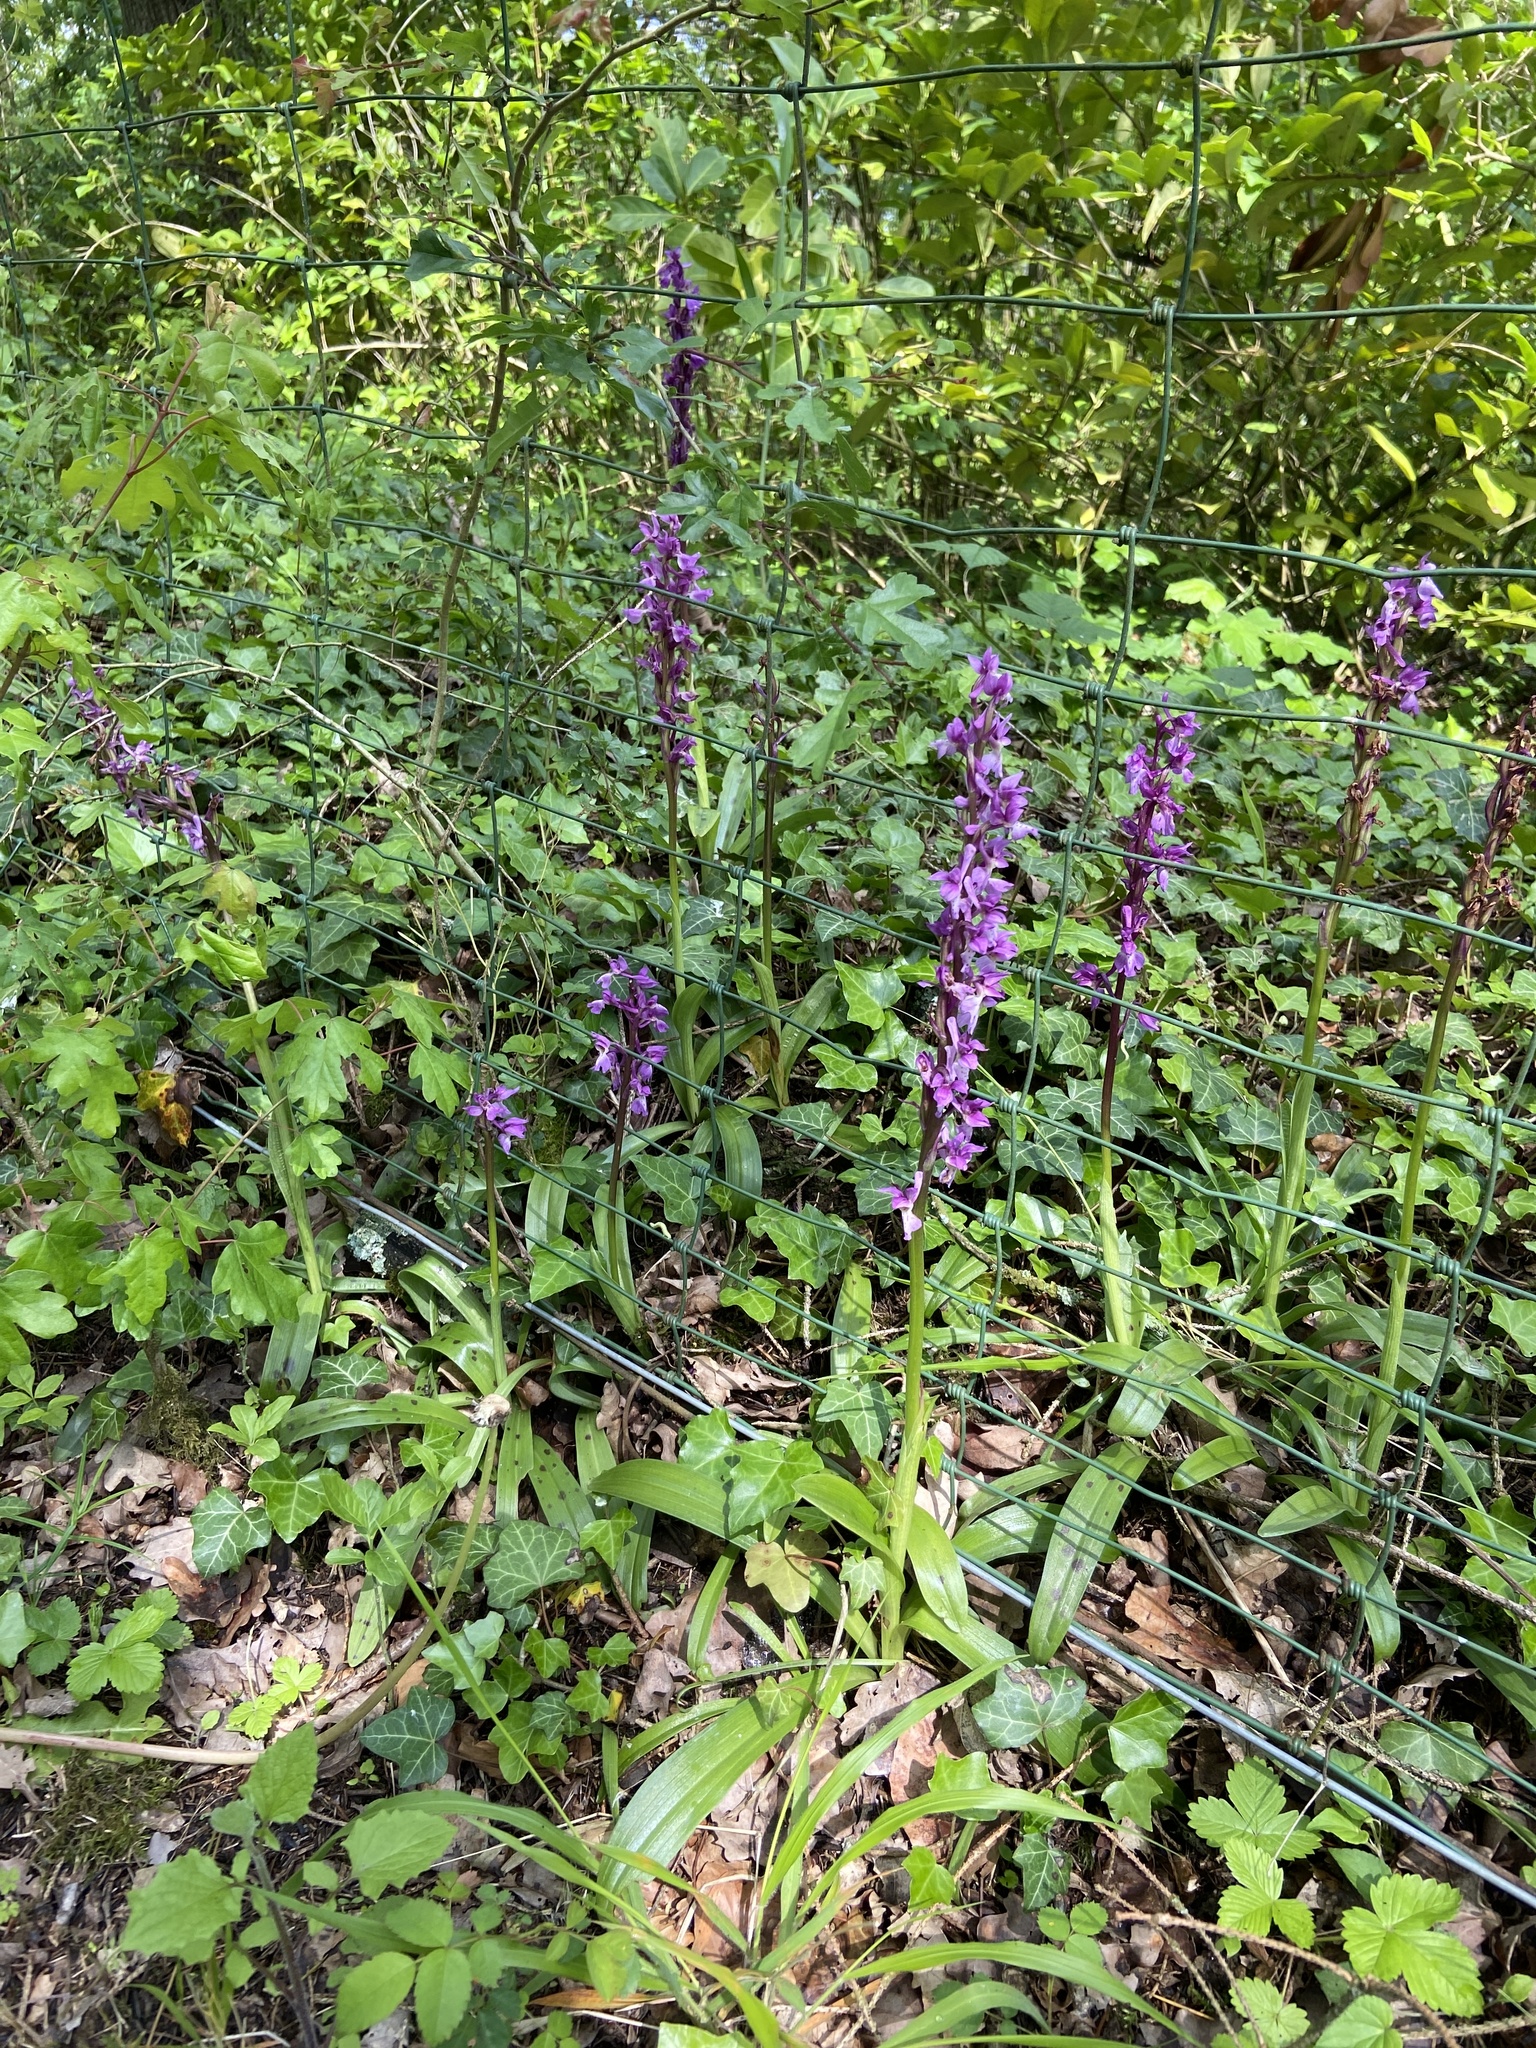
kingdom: Plantae
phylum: Tracheophyta
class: Liliopsida
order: Asparagales
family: Orchidaceae
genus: Orchis
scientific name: Orchis mascula
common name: Early-purple orchid
